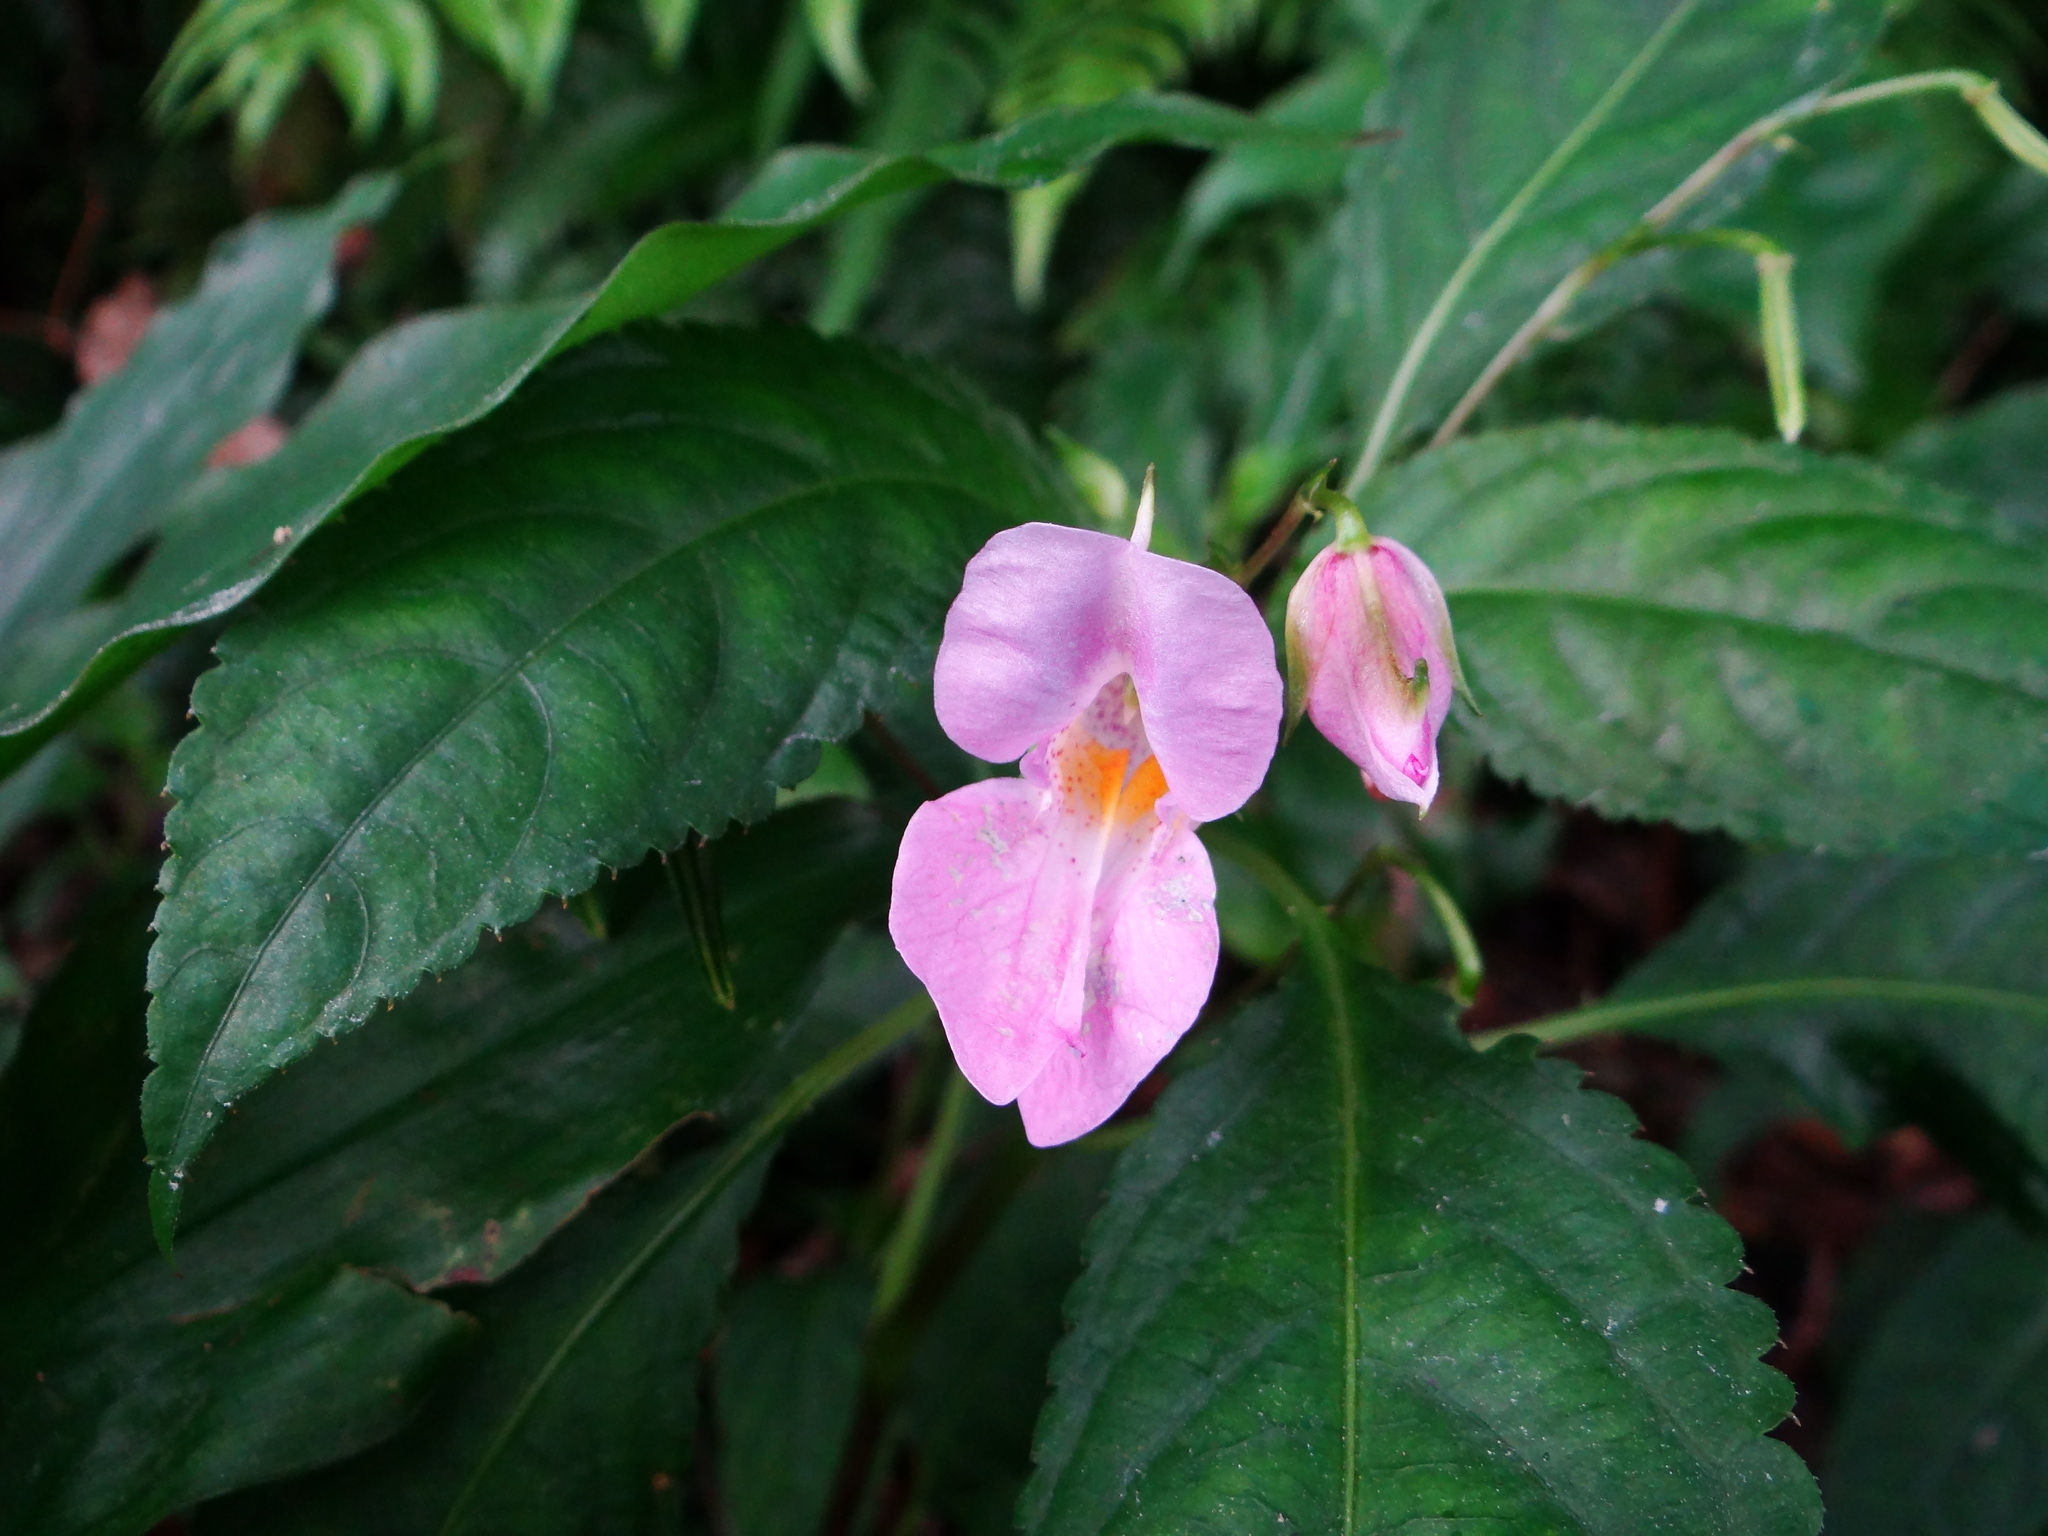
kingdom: Plantae
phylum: Tracheophyta
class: Magnoliopsida
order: Ericales
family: Balsaminaceae
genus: Impatiens
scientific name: Impatiens uniflora
